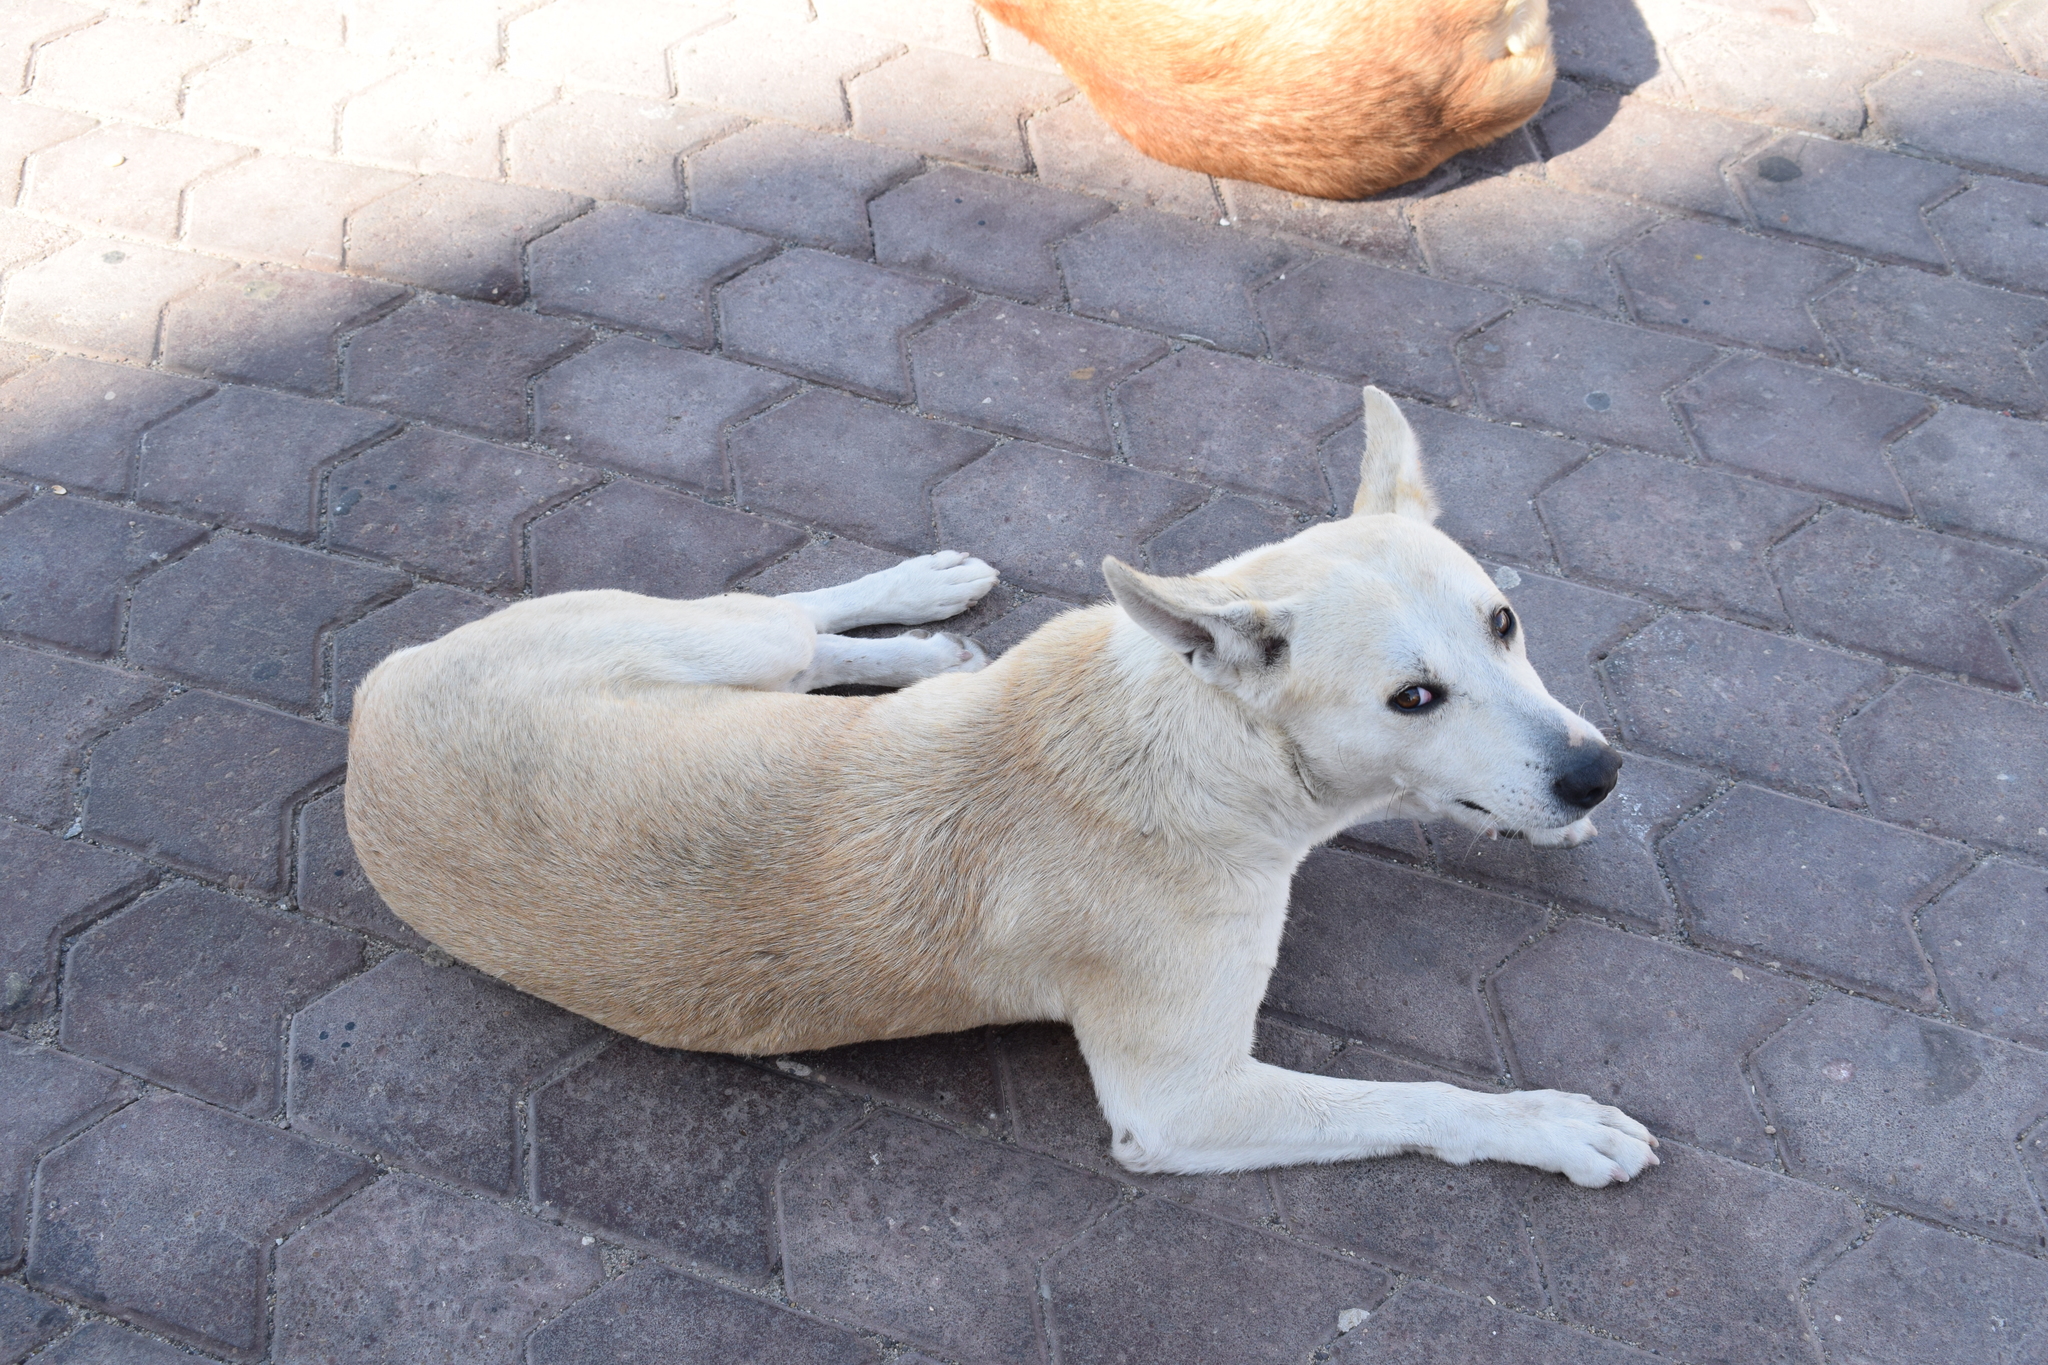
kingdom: Animalia
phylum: Chordata
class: Mammalia
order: Carnivora
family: Canidae
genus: Canis
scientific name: Canis lupus
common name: Gray wolf
